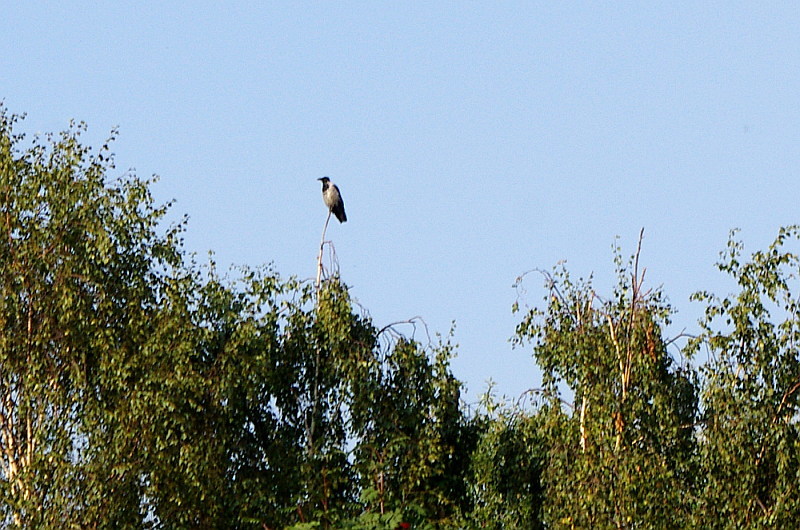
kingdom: Animalia
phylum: Chordata
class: Aves
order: Passeriformes
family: Corvidae
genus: Corvus
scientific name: Corvus cornix
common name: Hooded crow
